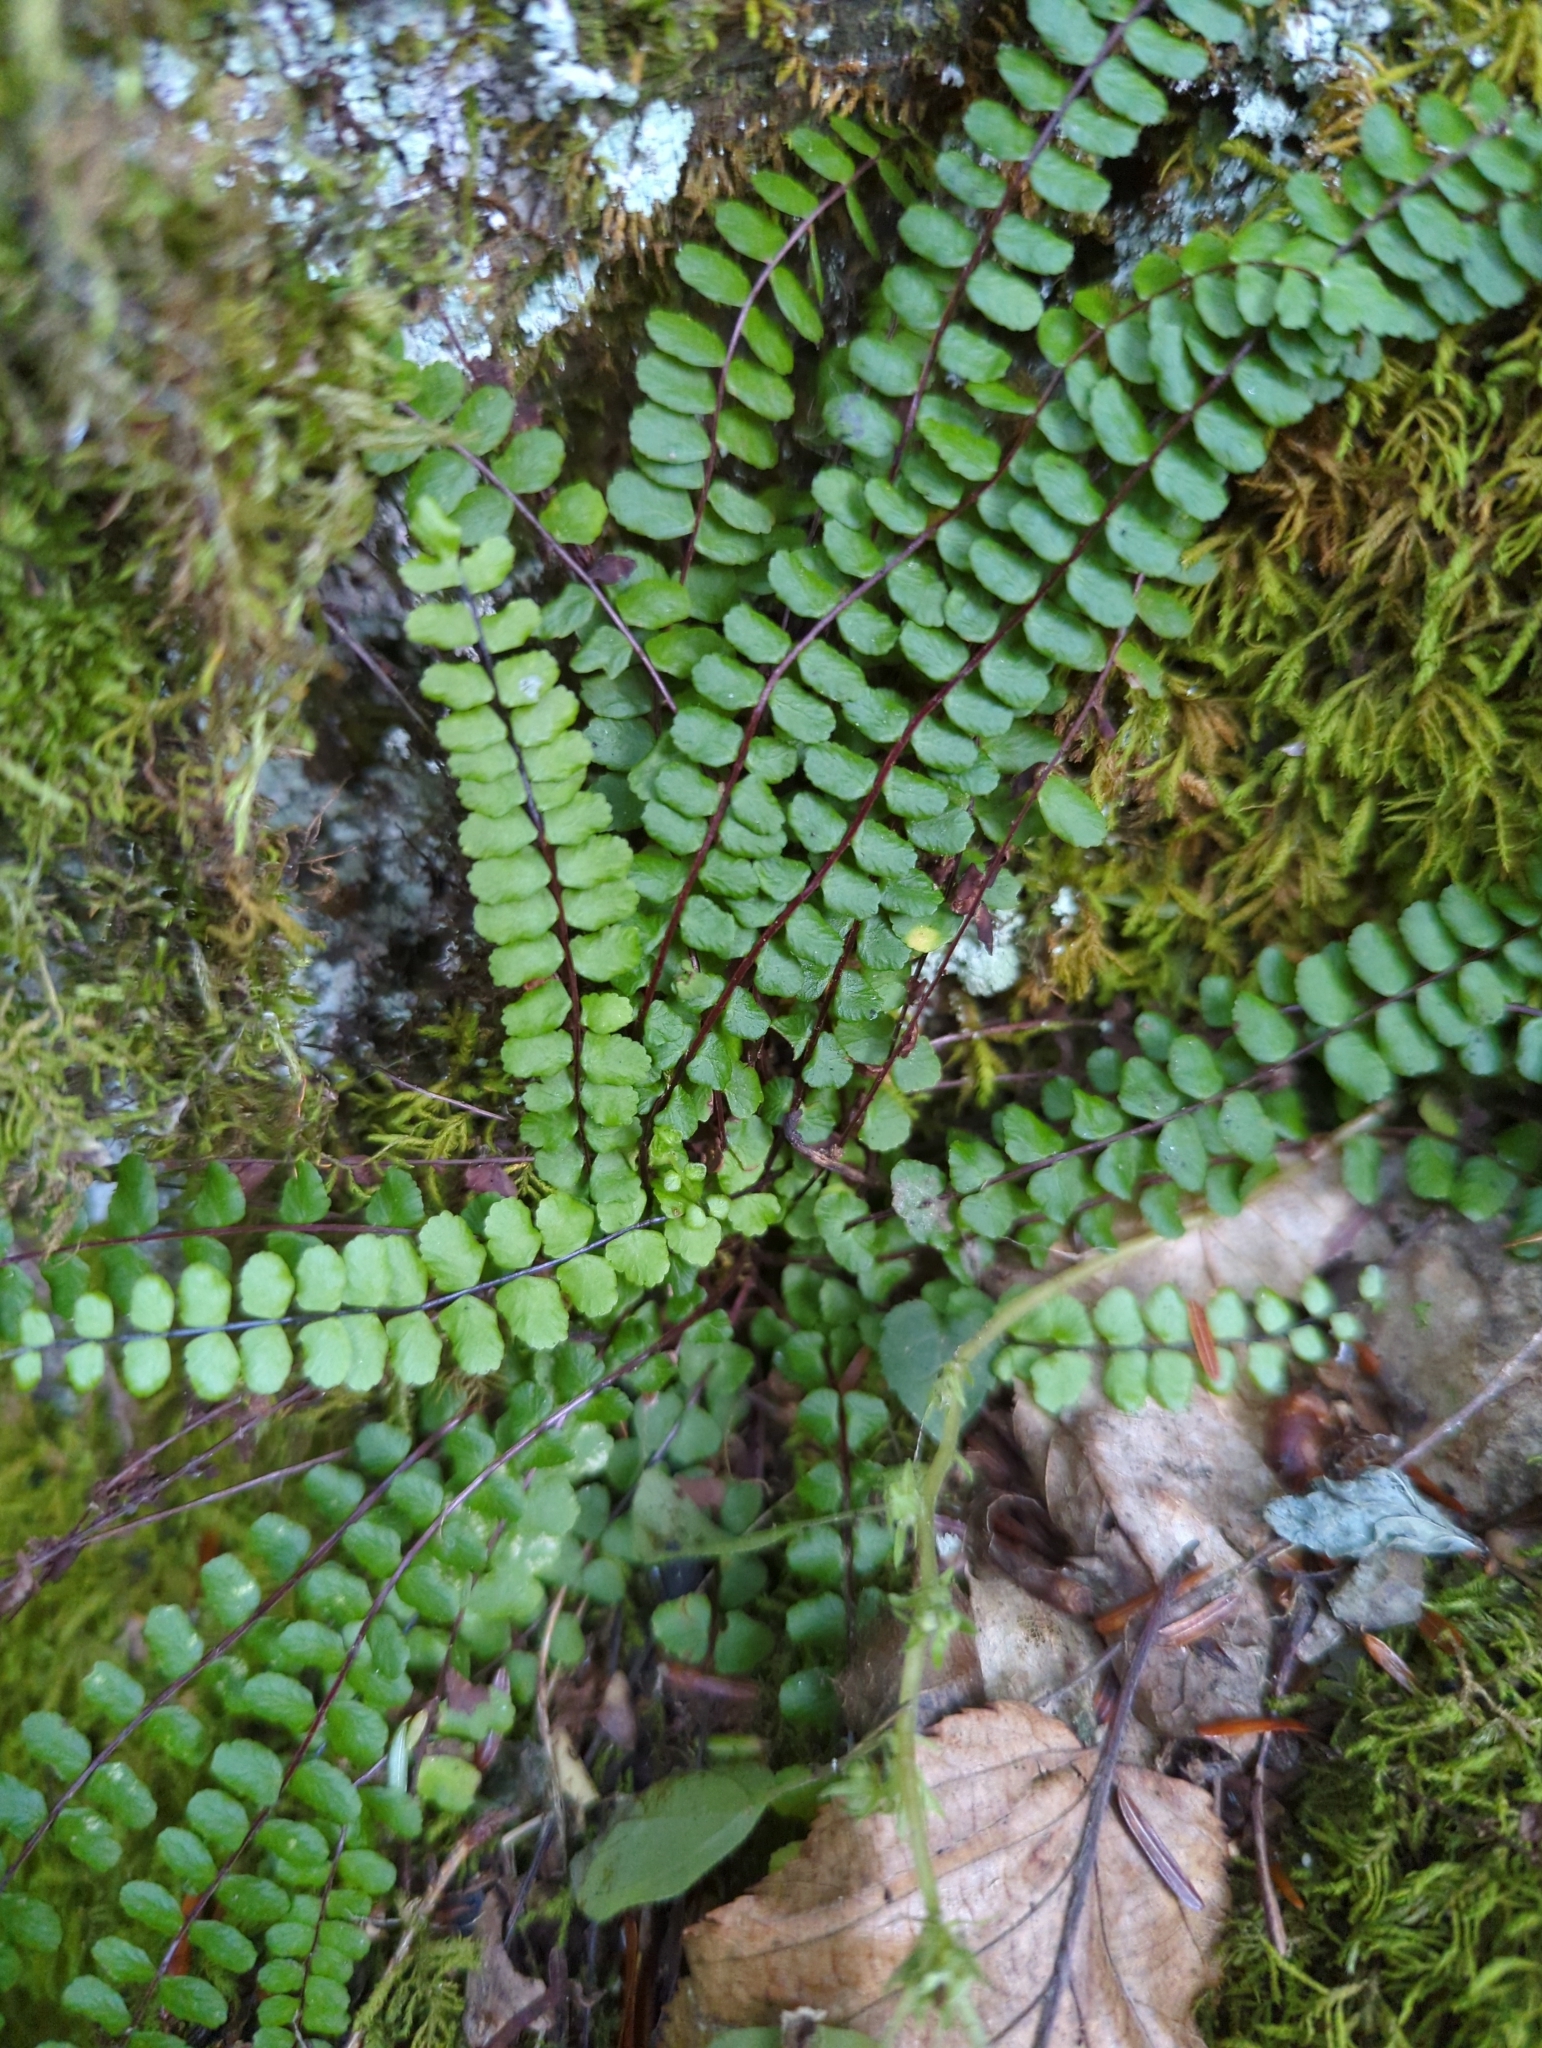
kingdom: Plantae
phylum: Tracheophyta
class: Polypodiopsida
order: Polypodiales
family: Aspleniaceae
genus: Asplenium
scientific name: Asplenium trichomanes
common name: Maidenhair spleenwort
